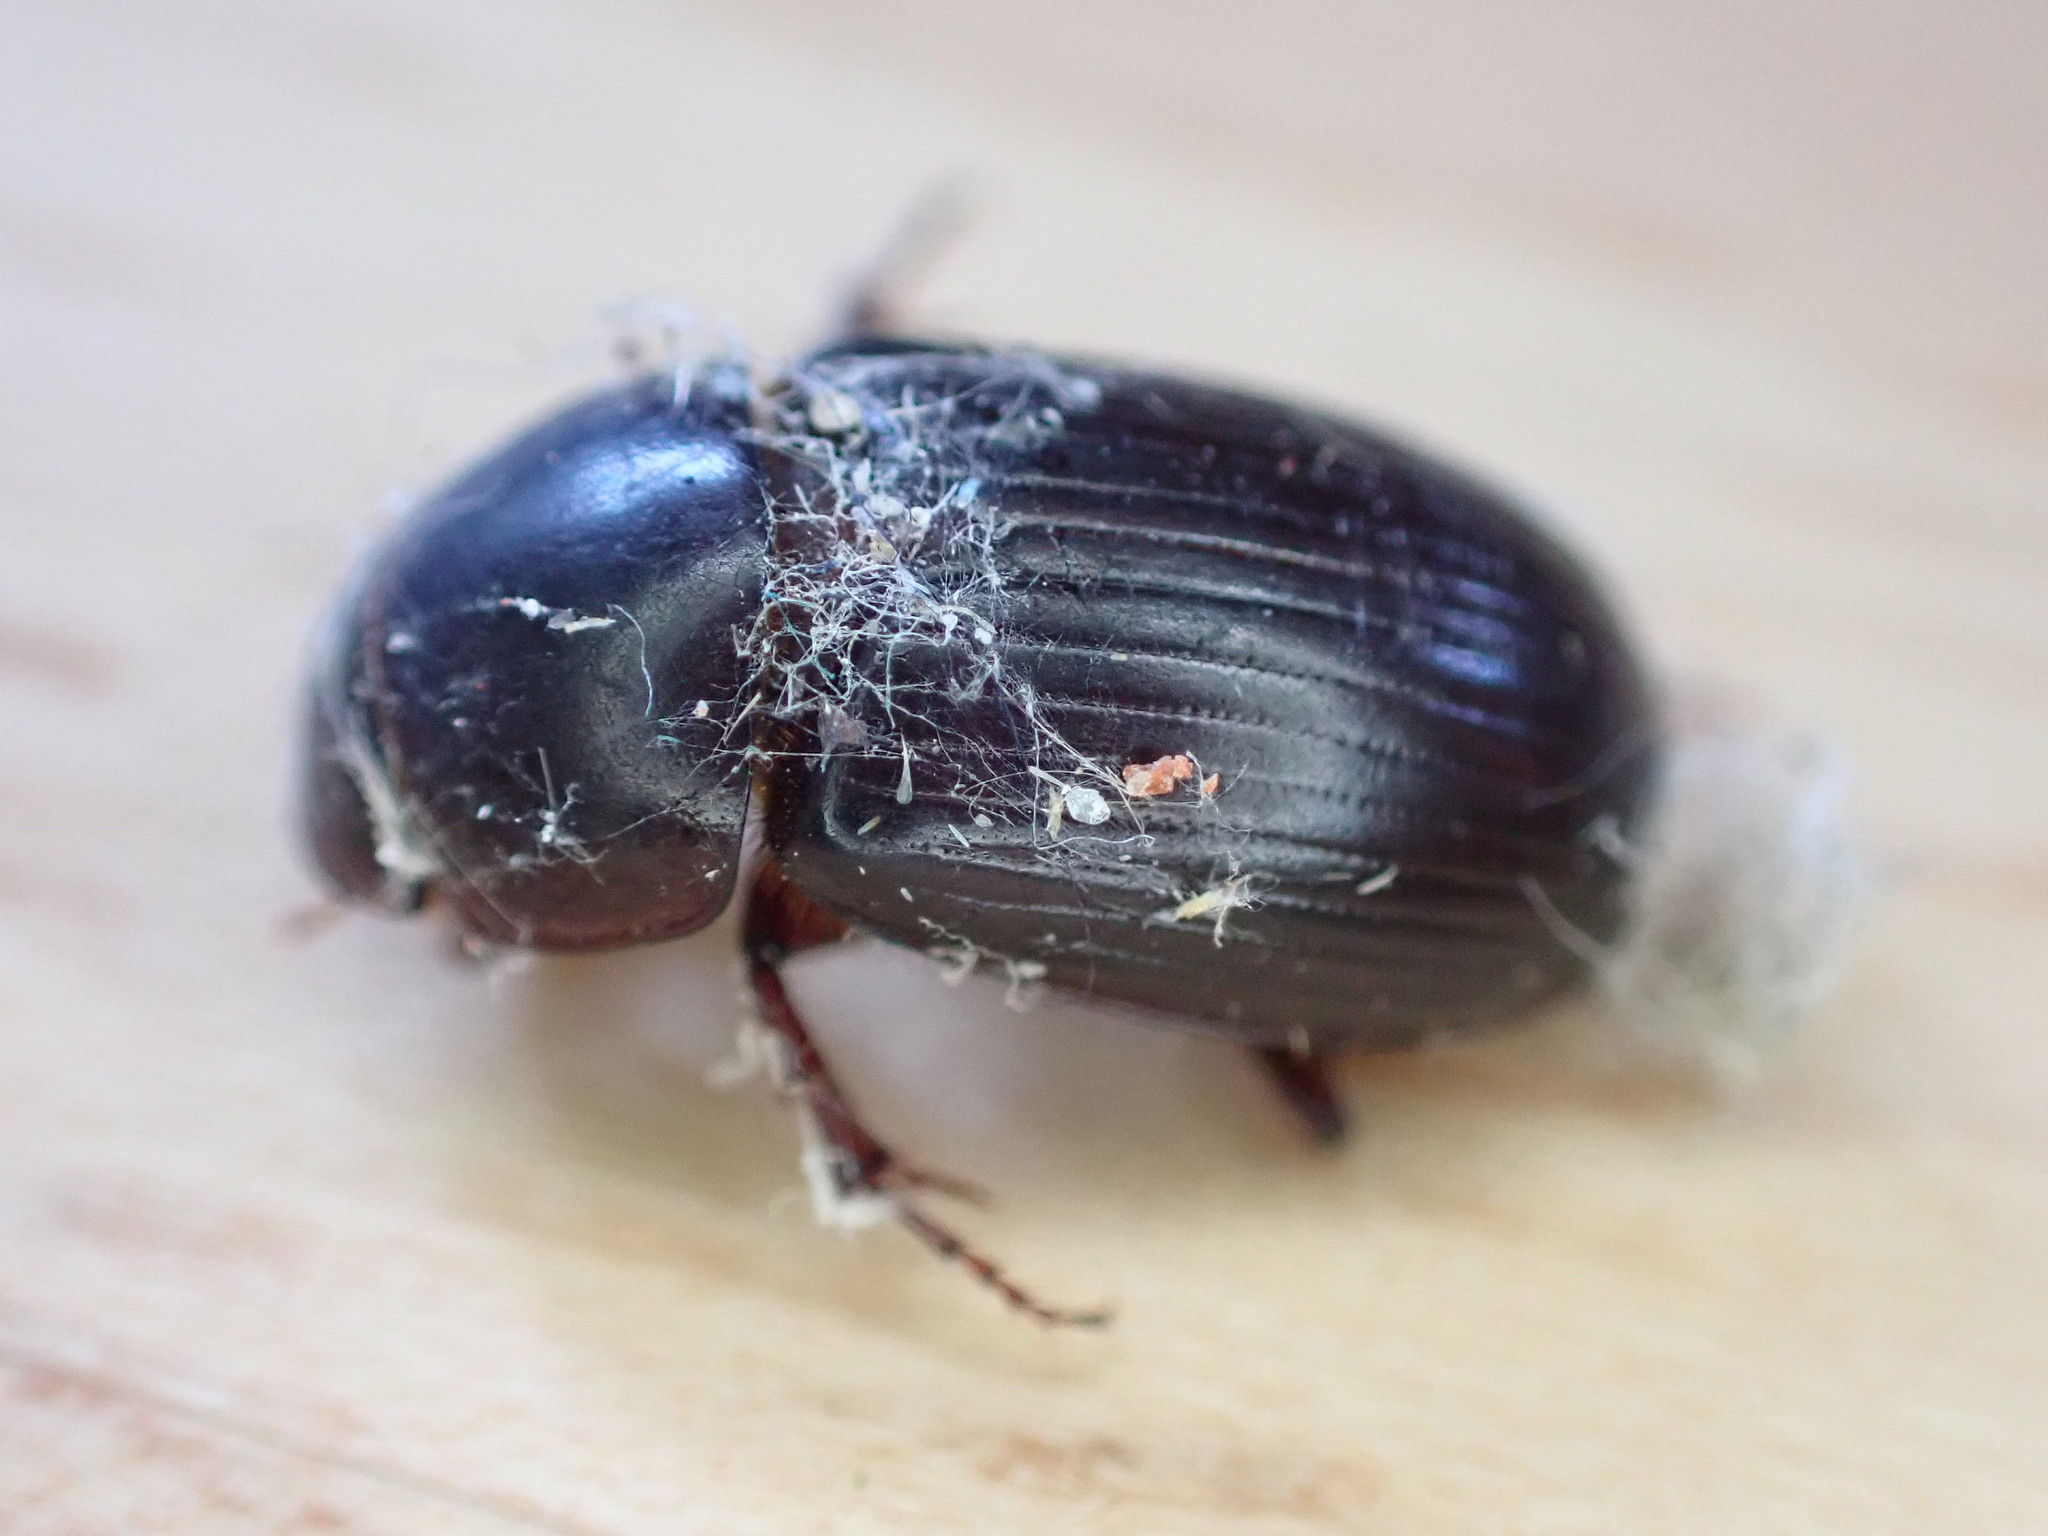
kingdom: Animalia
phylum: Arthropoda
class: Insecta
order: Coleoptera
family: Scarabaeidae
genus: Acrossus
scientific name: Acrossus rufipes
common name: Night-flying dung beetle
